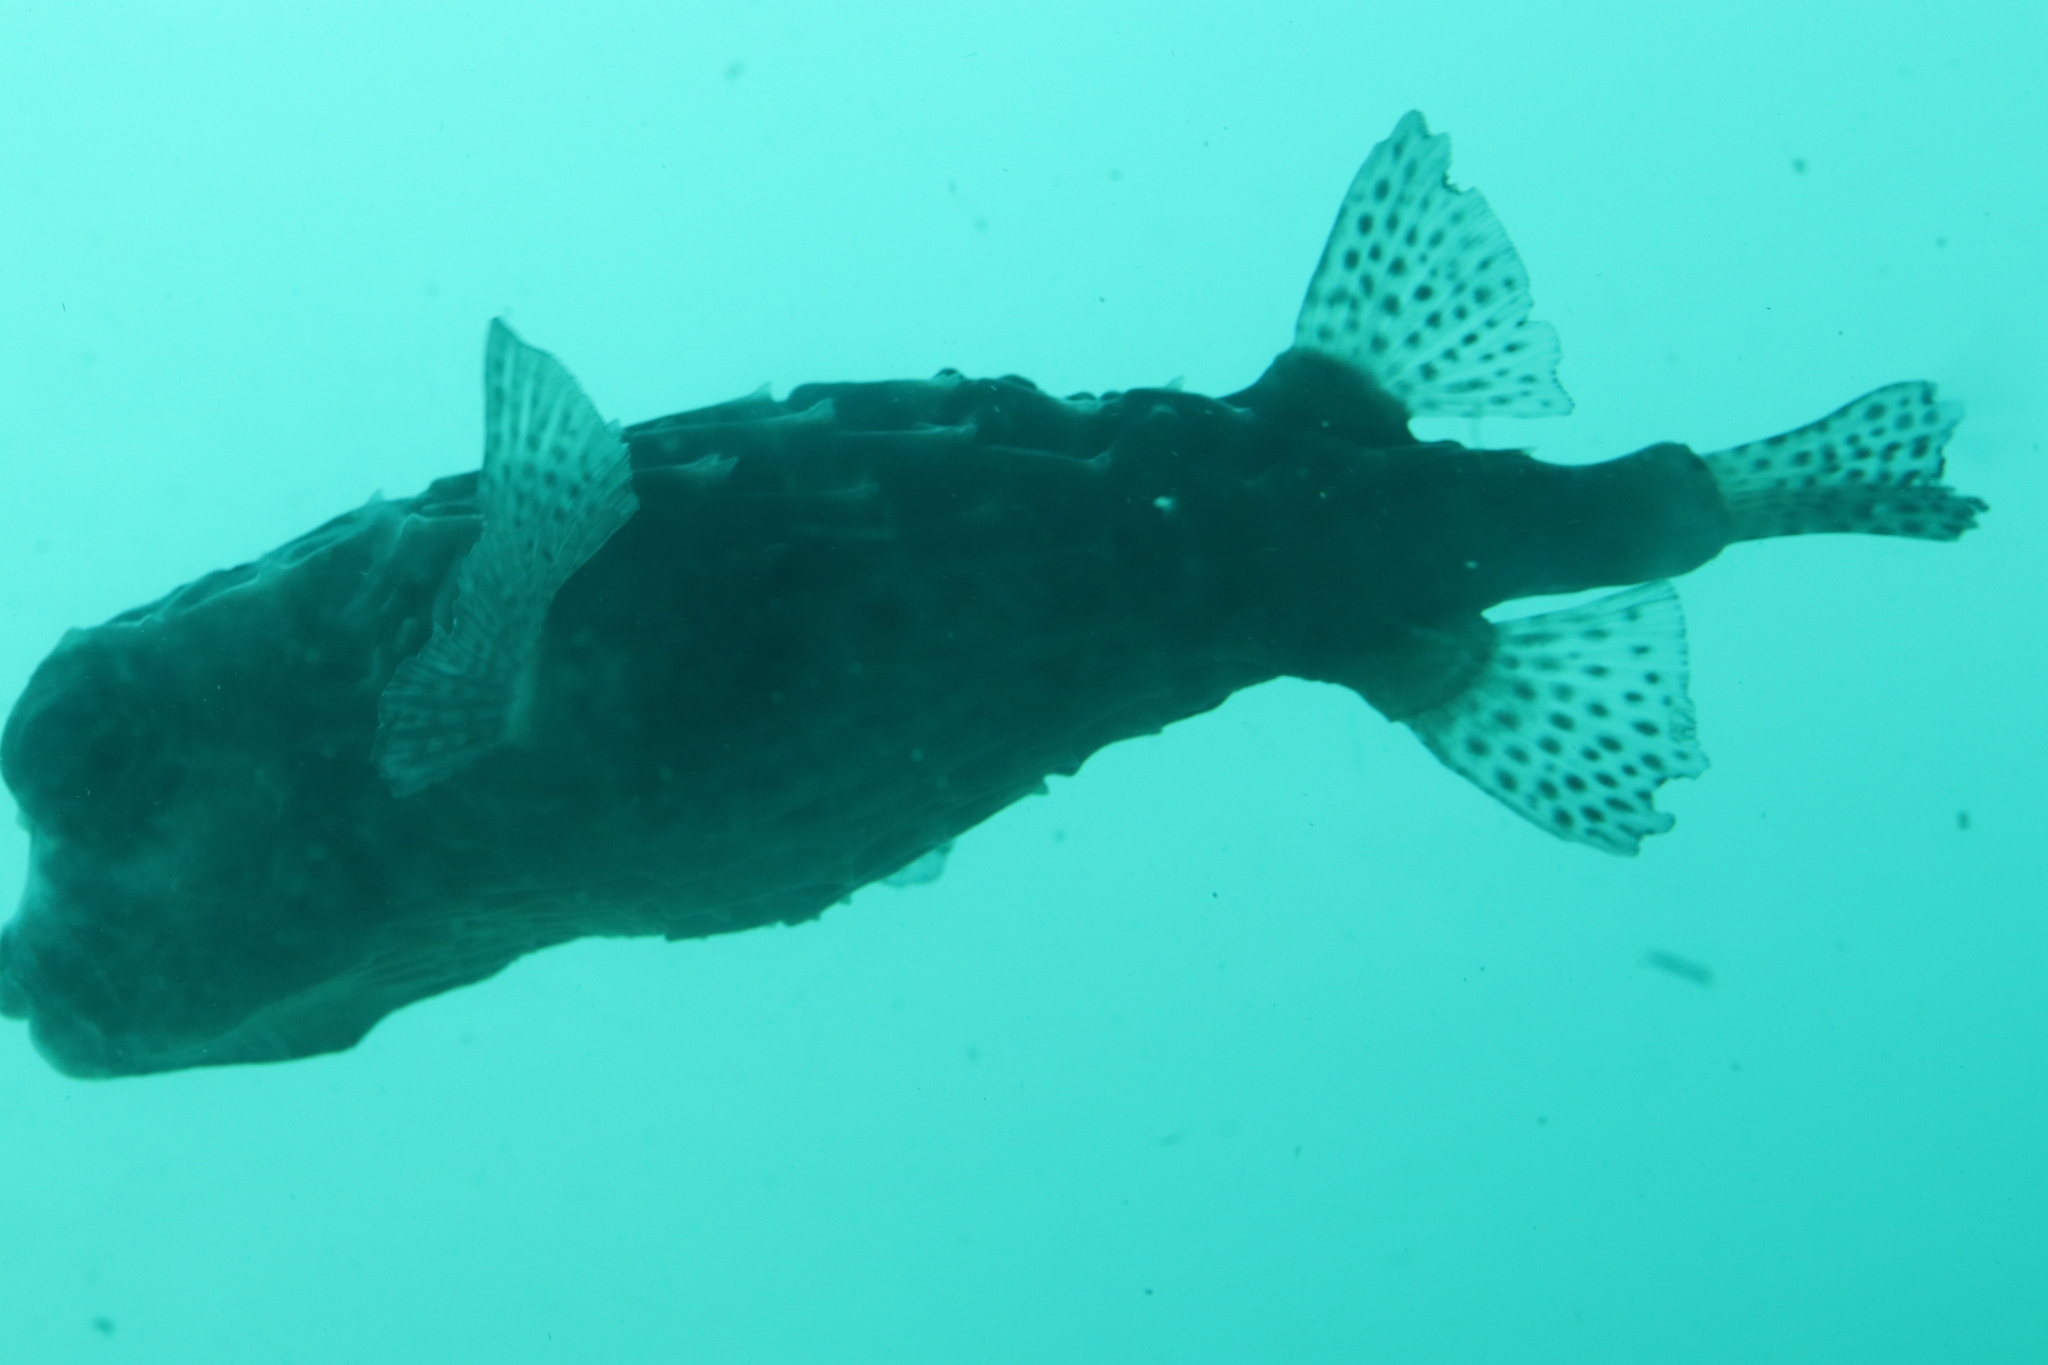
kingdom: Animalia
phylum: Chordata
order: Tetraodontiformes
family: Diodontidae
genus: Chilomycterus
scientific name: Chilomycterus reticulatus
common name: Spotfin burrfish
